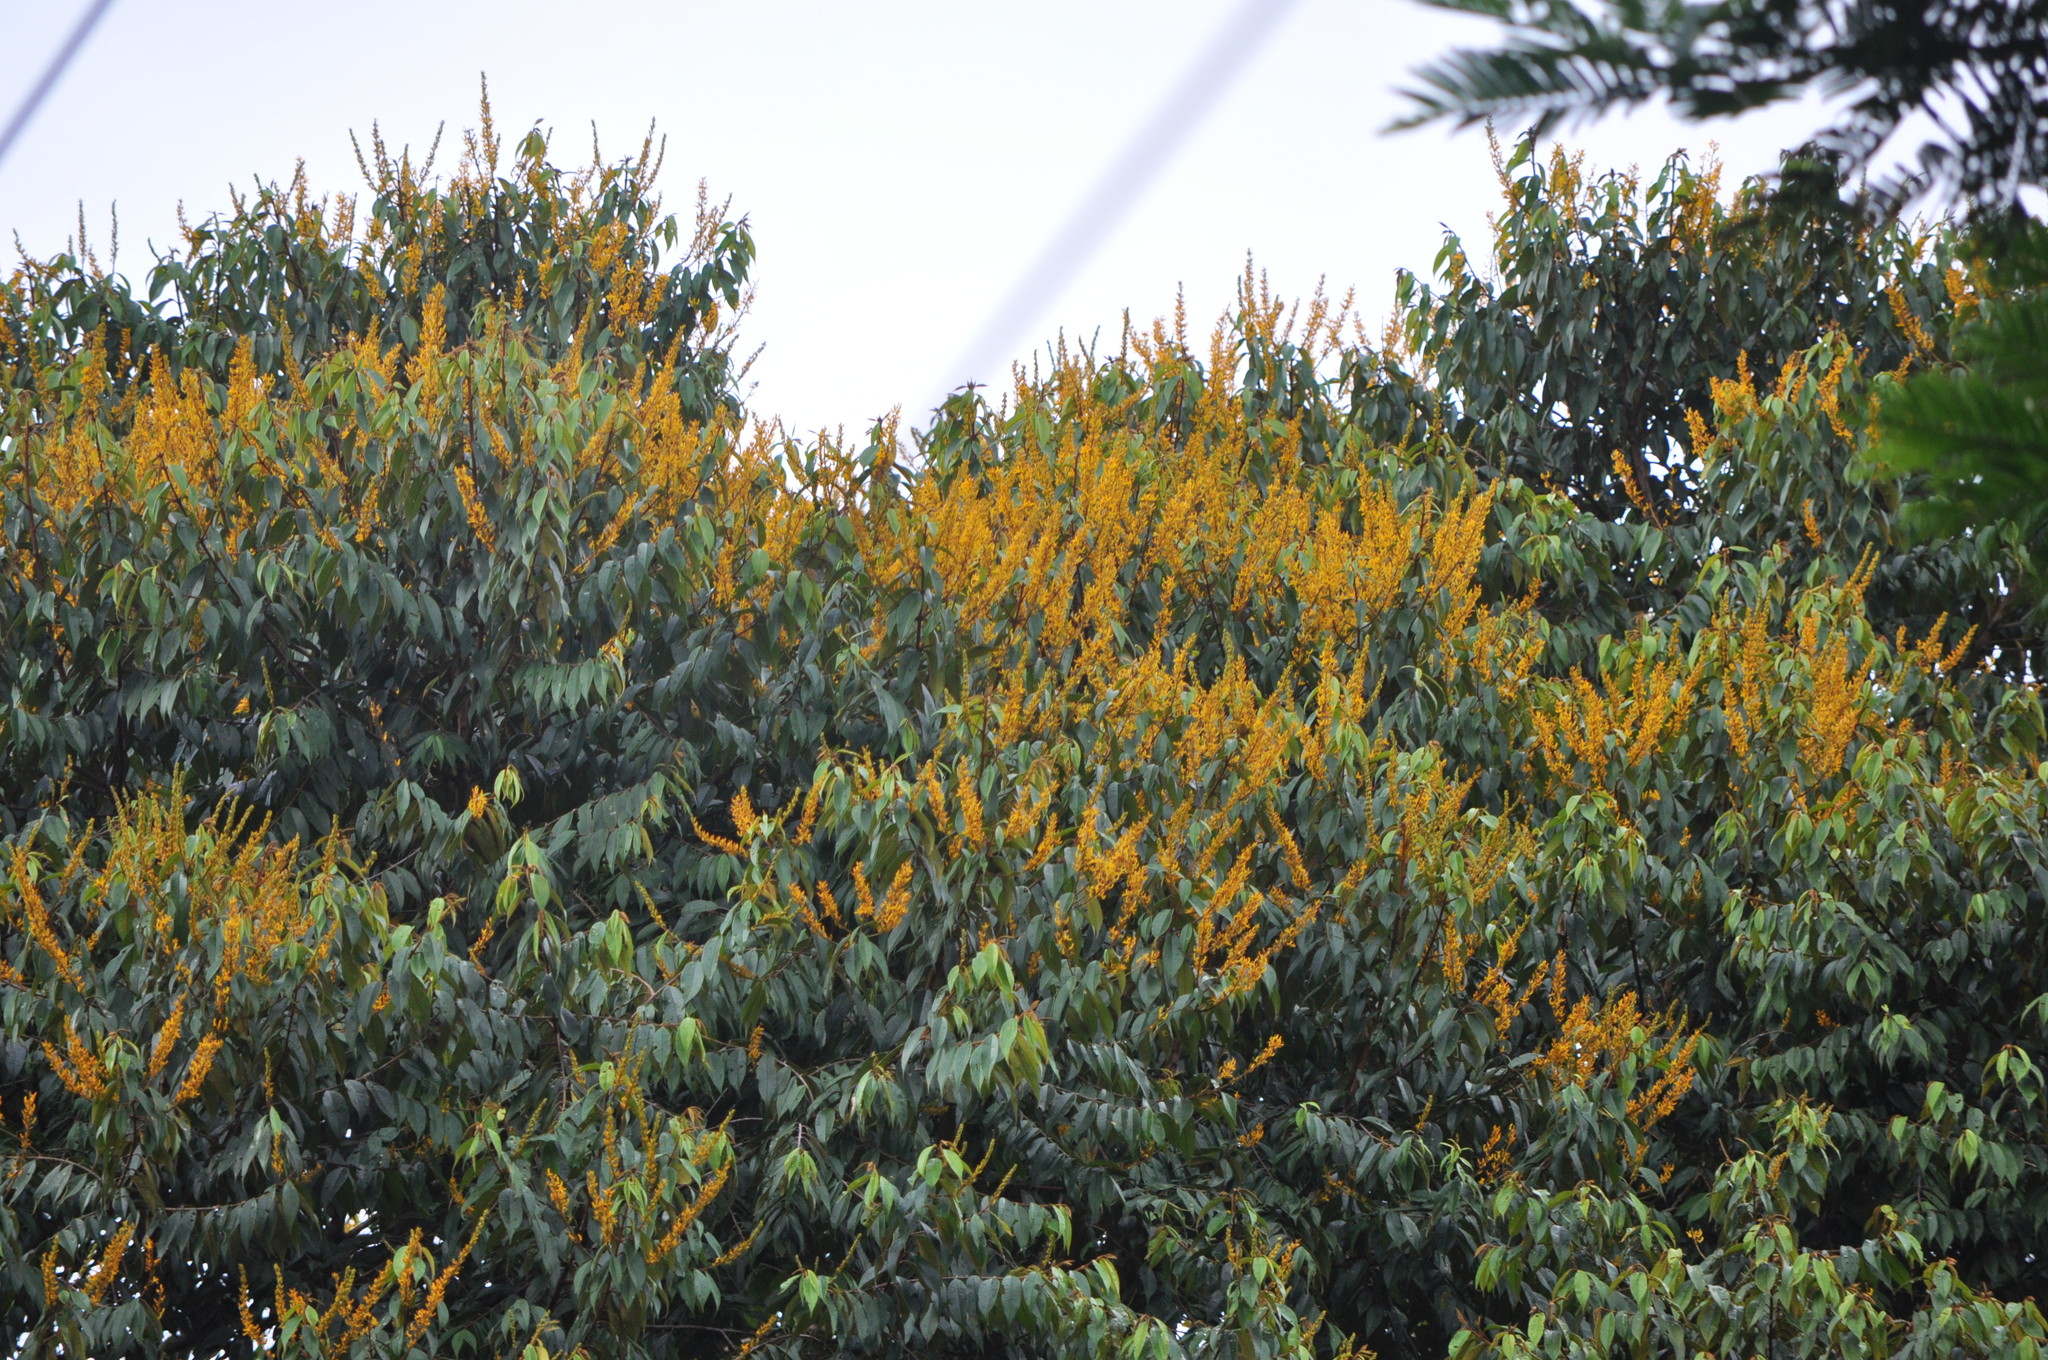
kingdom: Plantae
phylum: Tracheophyta
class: Magnoliopsida
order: Myrtales
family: Vochysiaceae
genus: Vochysia
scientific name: Vochysia ferruginea
